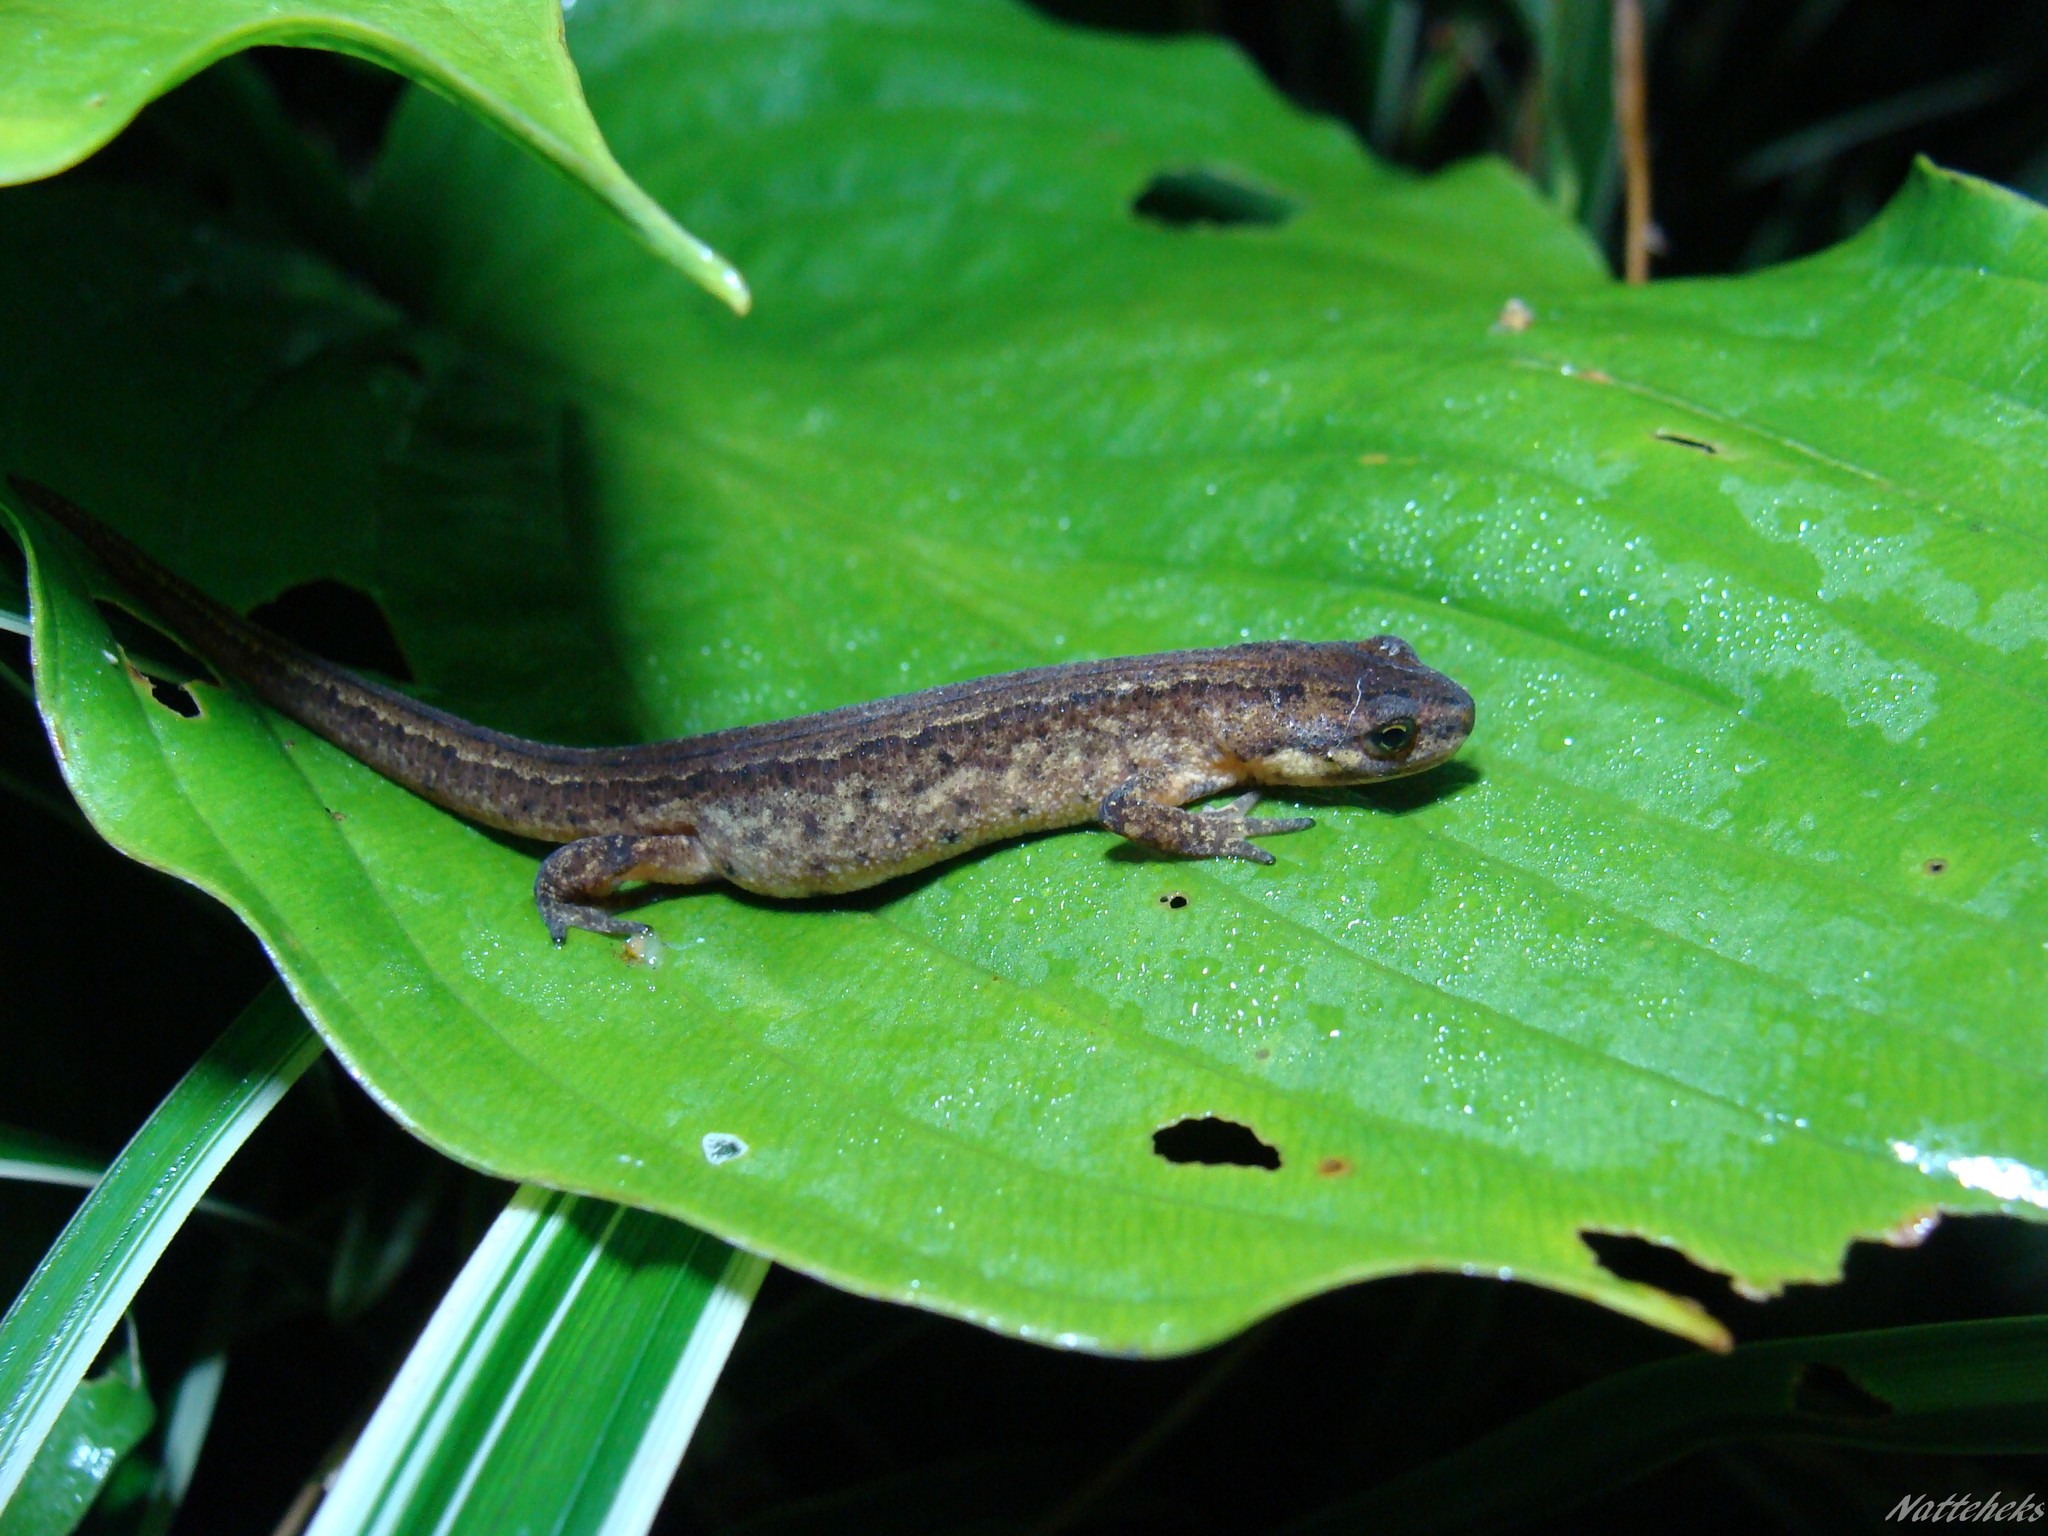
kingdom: Animalia
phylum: Chordata
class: Amphibia
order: Caudata
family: Salamandridae
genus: Lissotriton
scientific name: Lissotriton vulgaris
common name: Smooth newt
